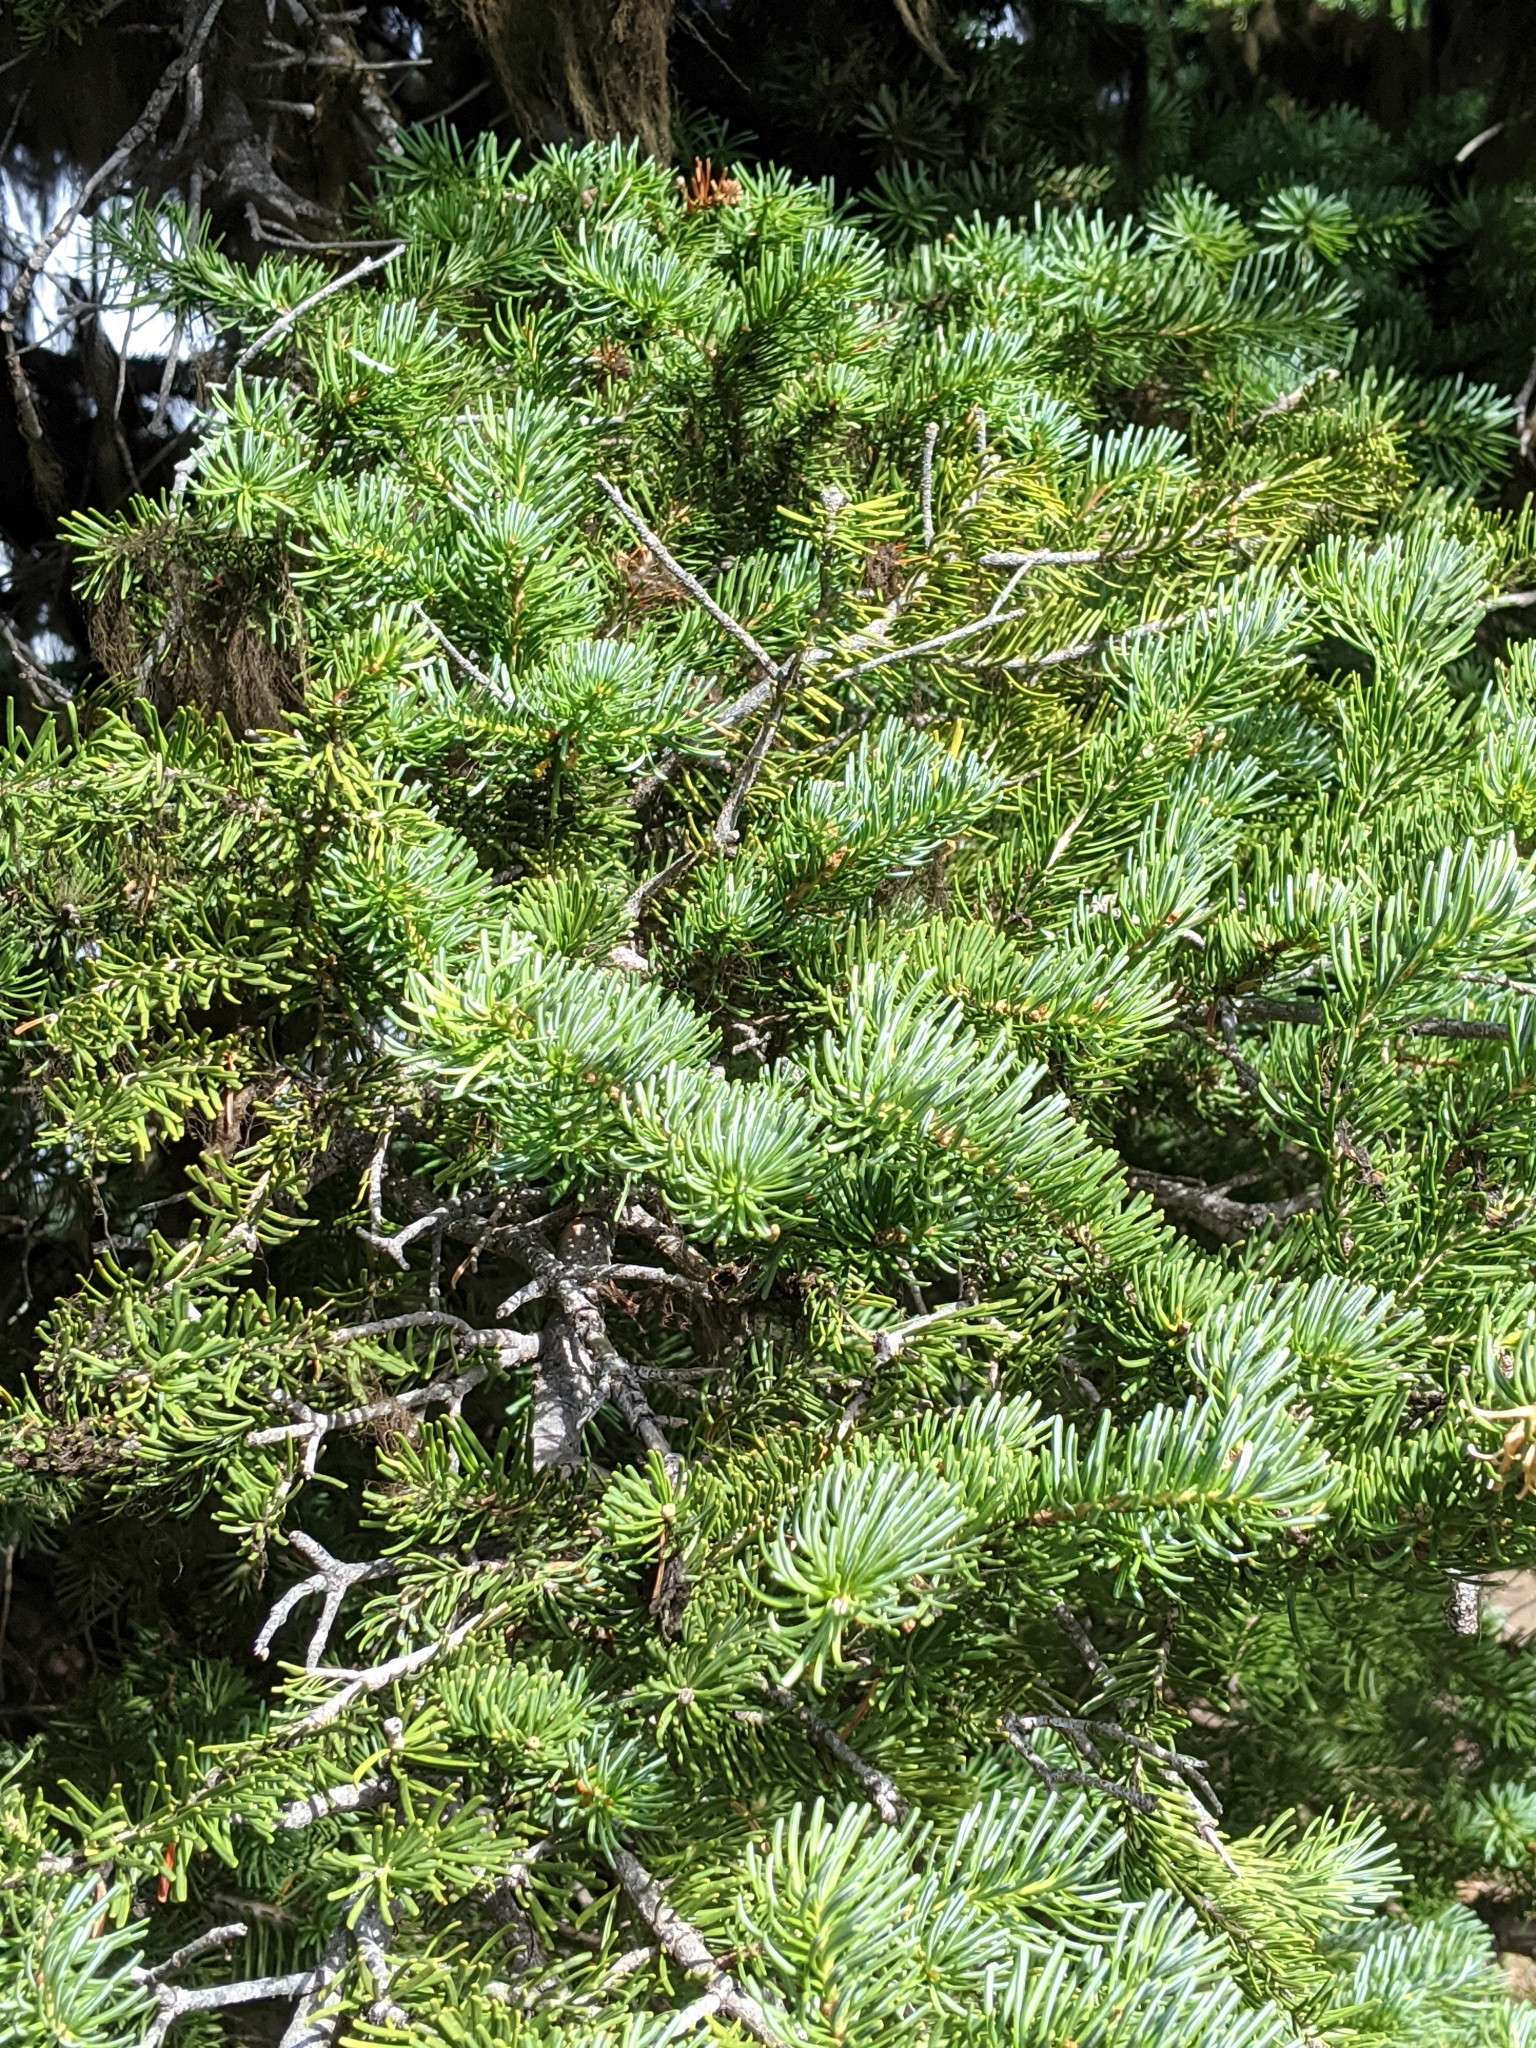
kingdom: Plantae
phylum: Tracheophyta
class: Pinopsida
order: Pinales
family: Pinaceae
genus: Abies
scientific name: Abies lasiocarpa
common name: Subalpine fir
